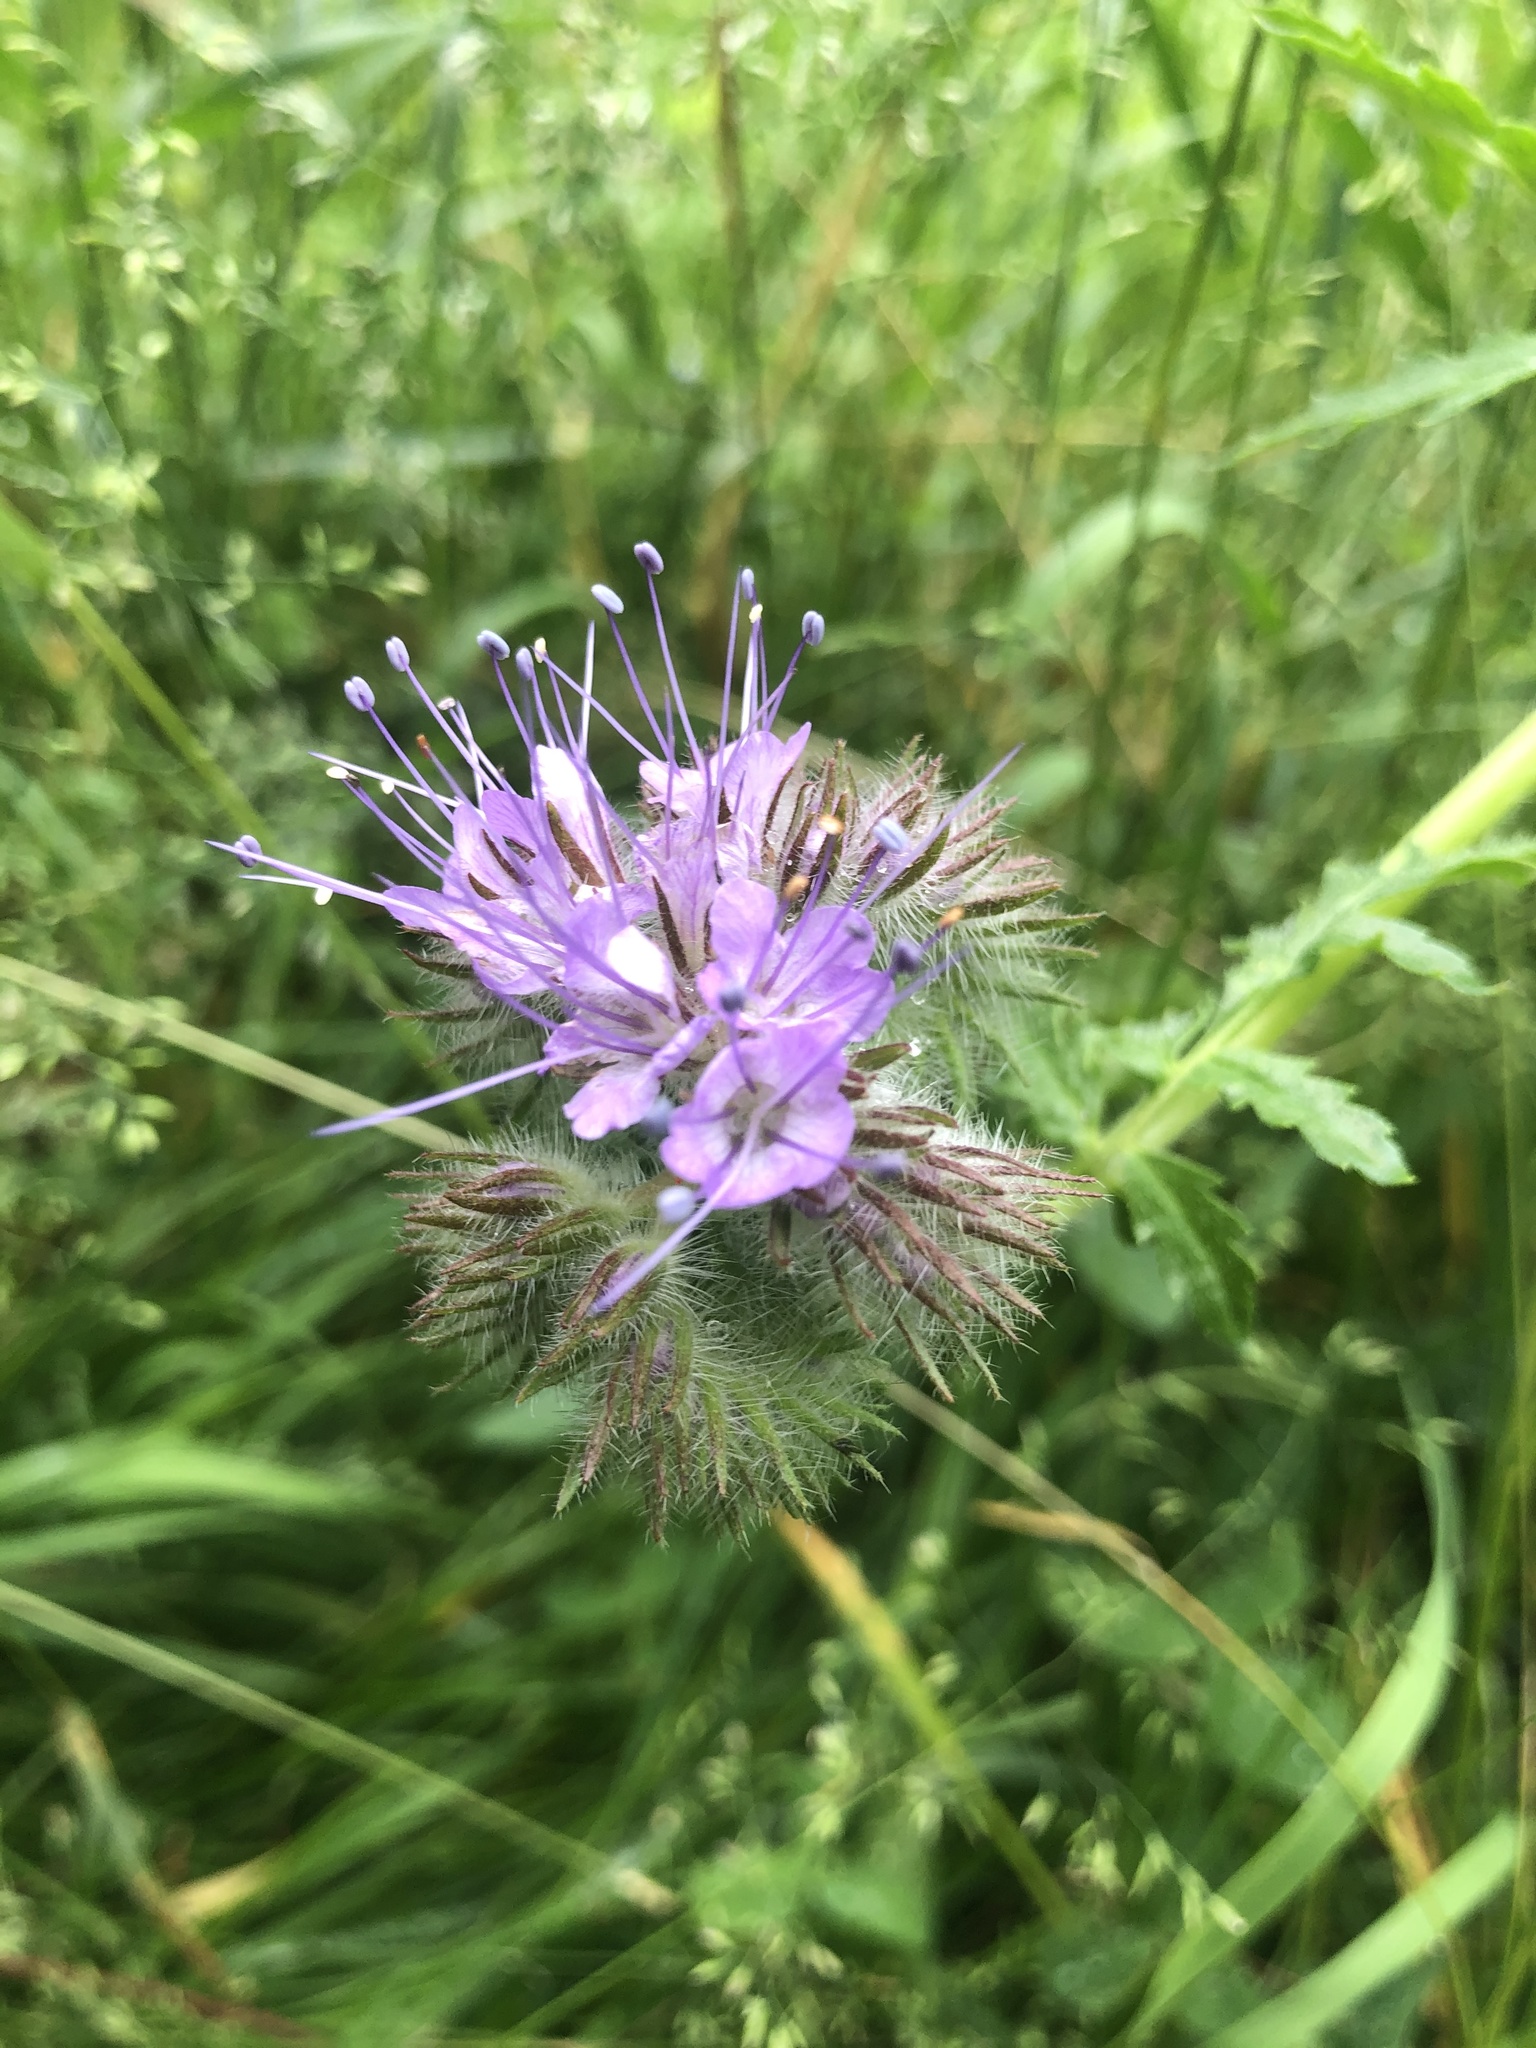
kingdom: Plantae
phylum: Tracheophyta
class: Magnoliopsida
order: Boraginales
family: Hydrophyllaceae
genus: Phacelia
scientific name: Phacelia tanacetifolia
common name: Phacelia
